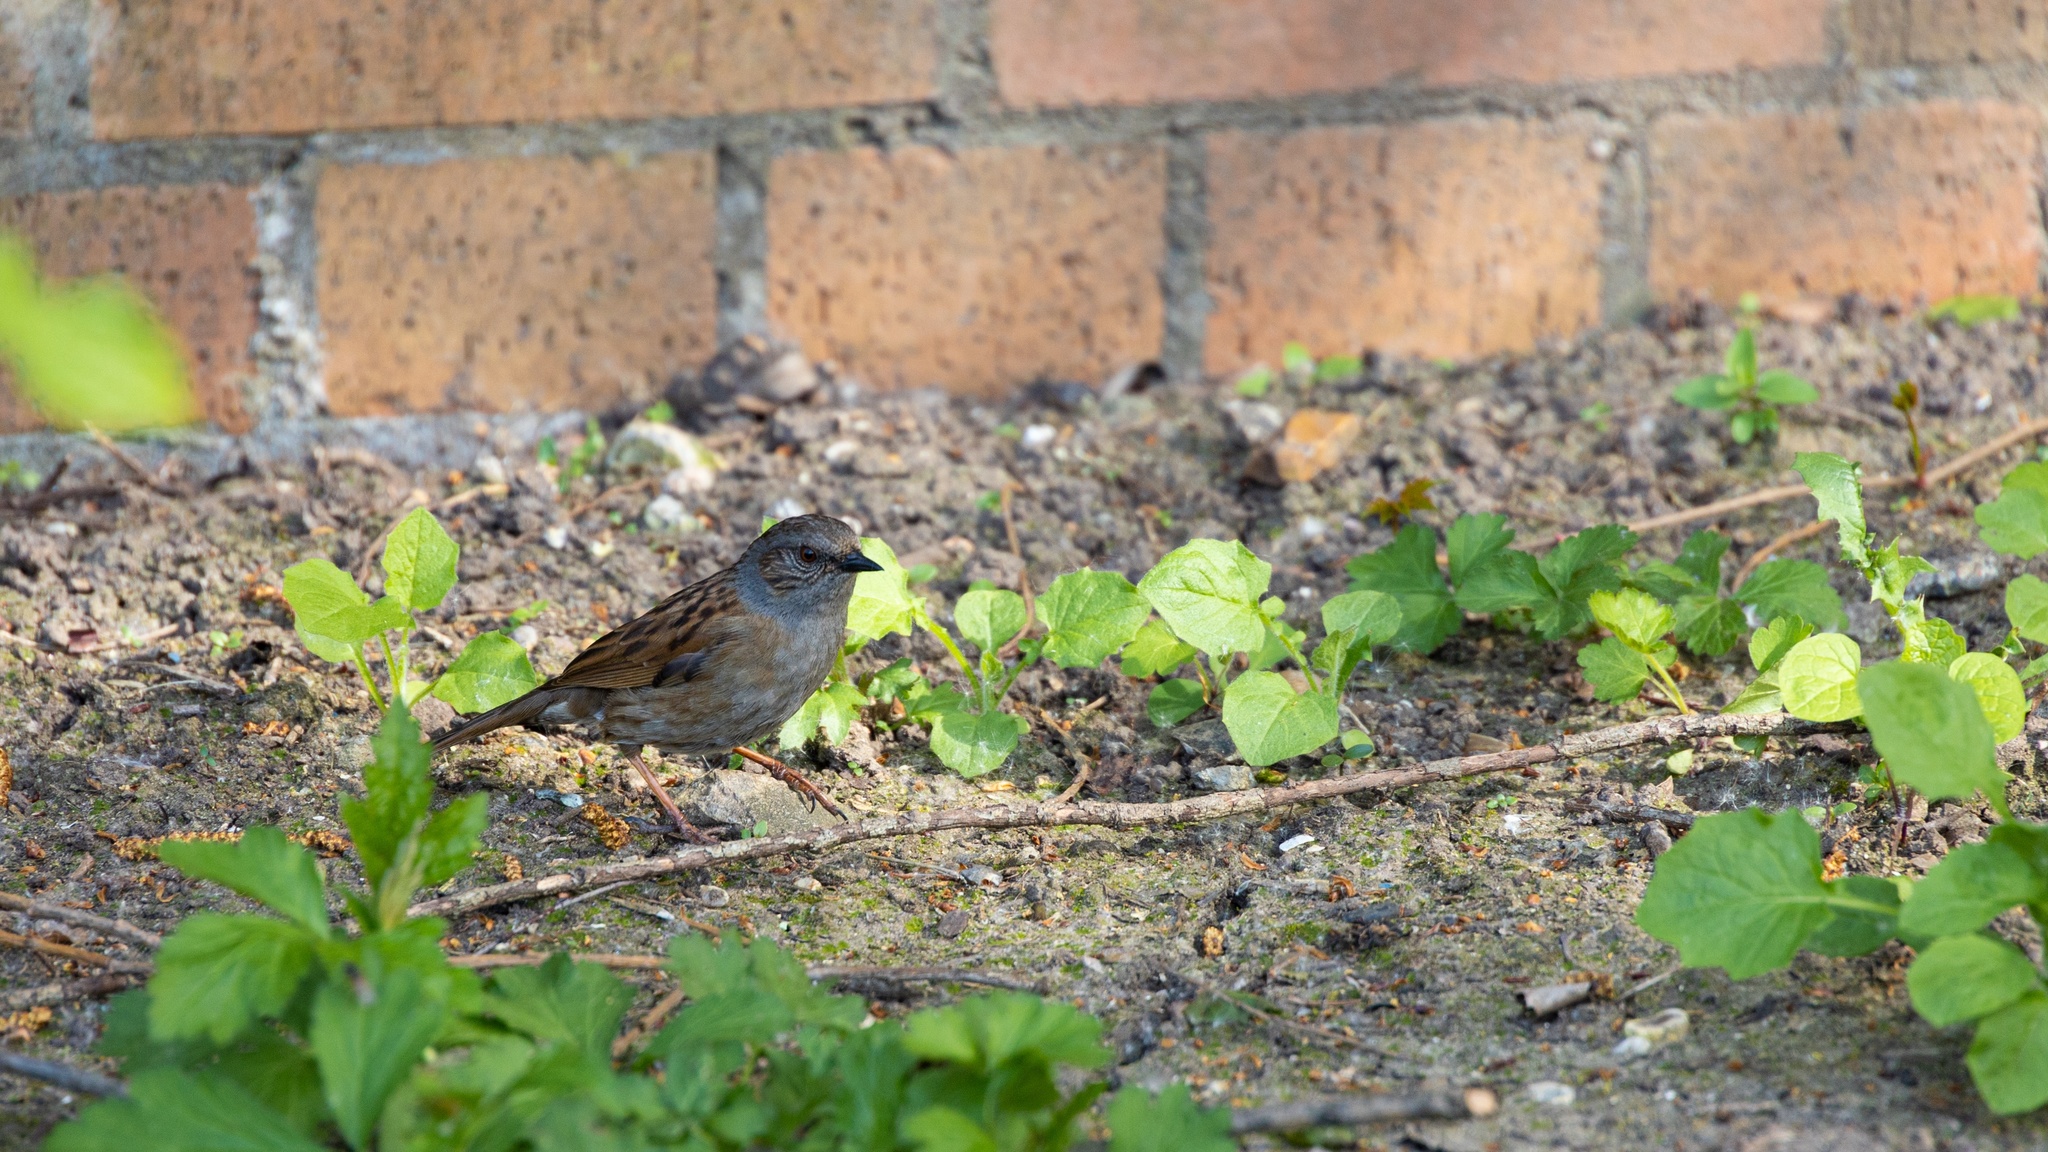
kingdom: Animalia
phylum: Chordata
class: Aves
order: Passeriformes
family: Prunellidae
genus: Prunella
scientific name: Prunella modularis
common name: Dunnock
